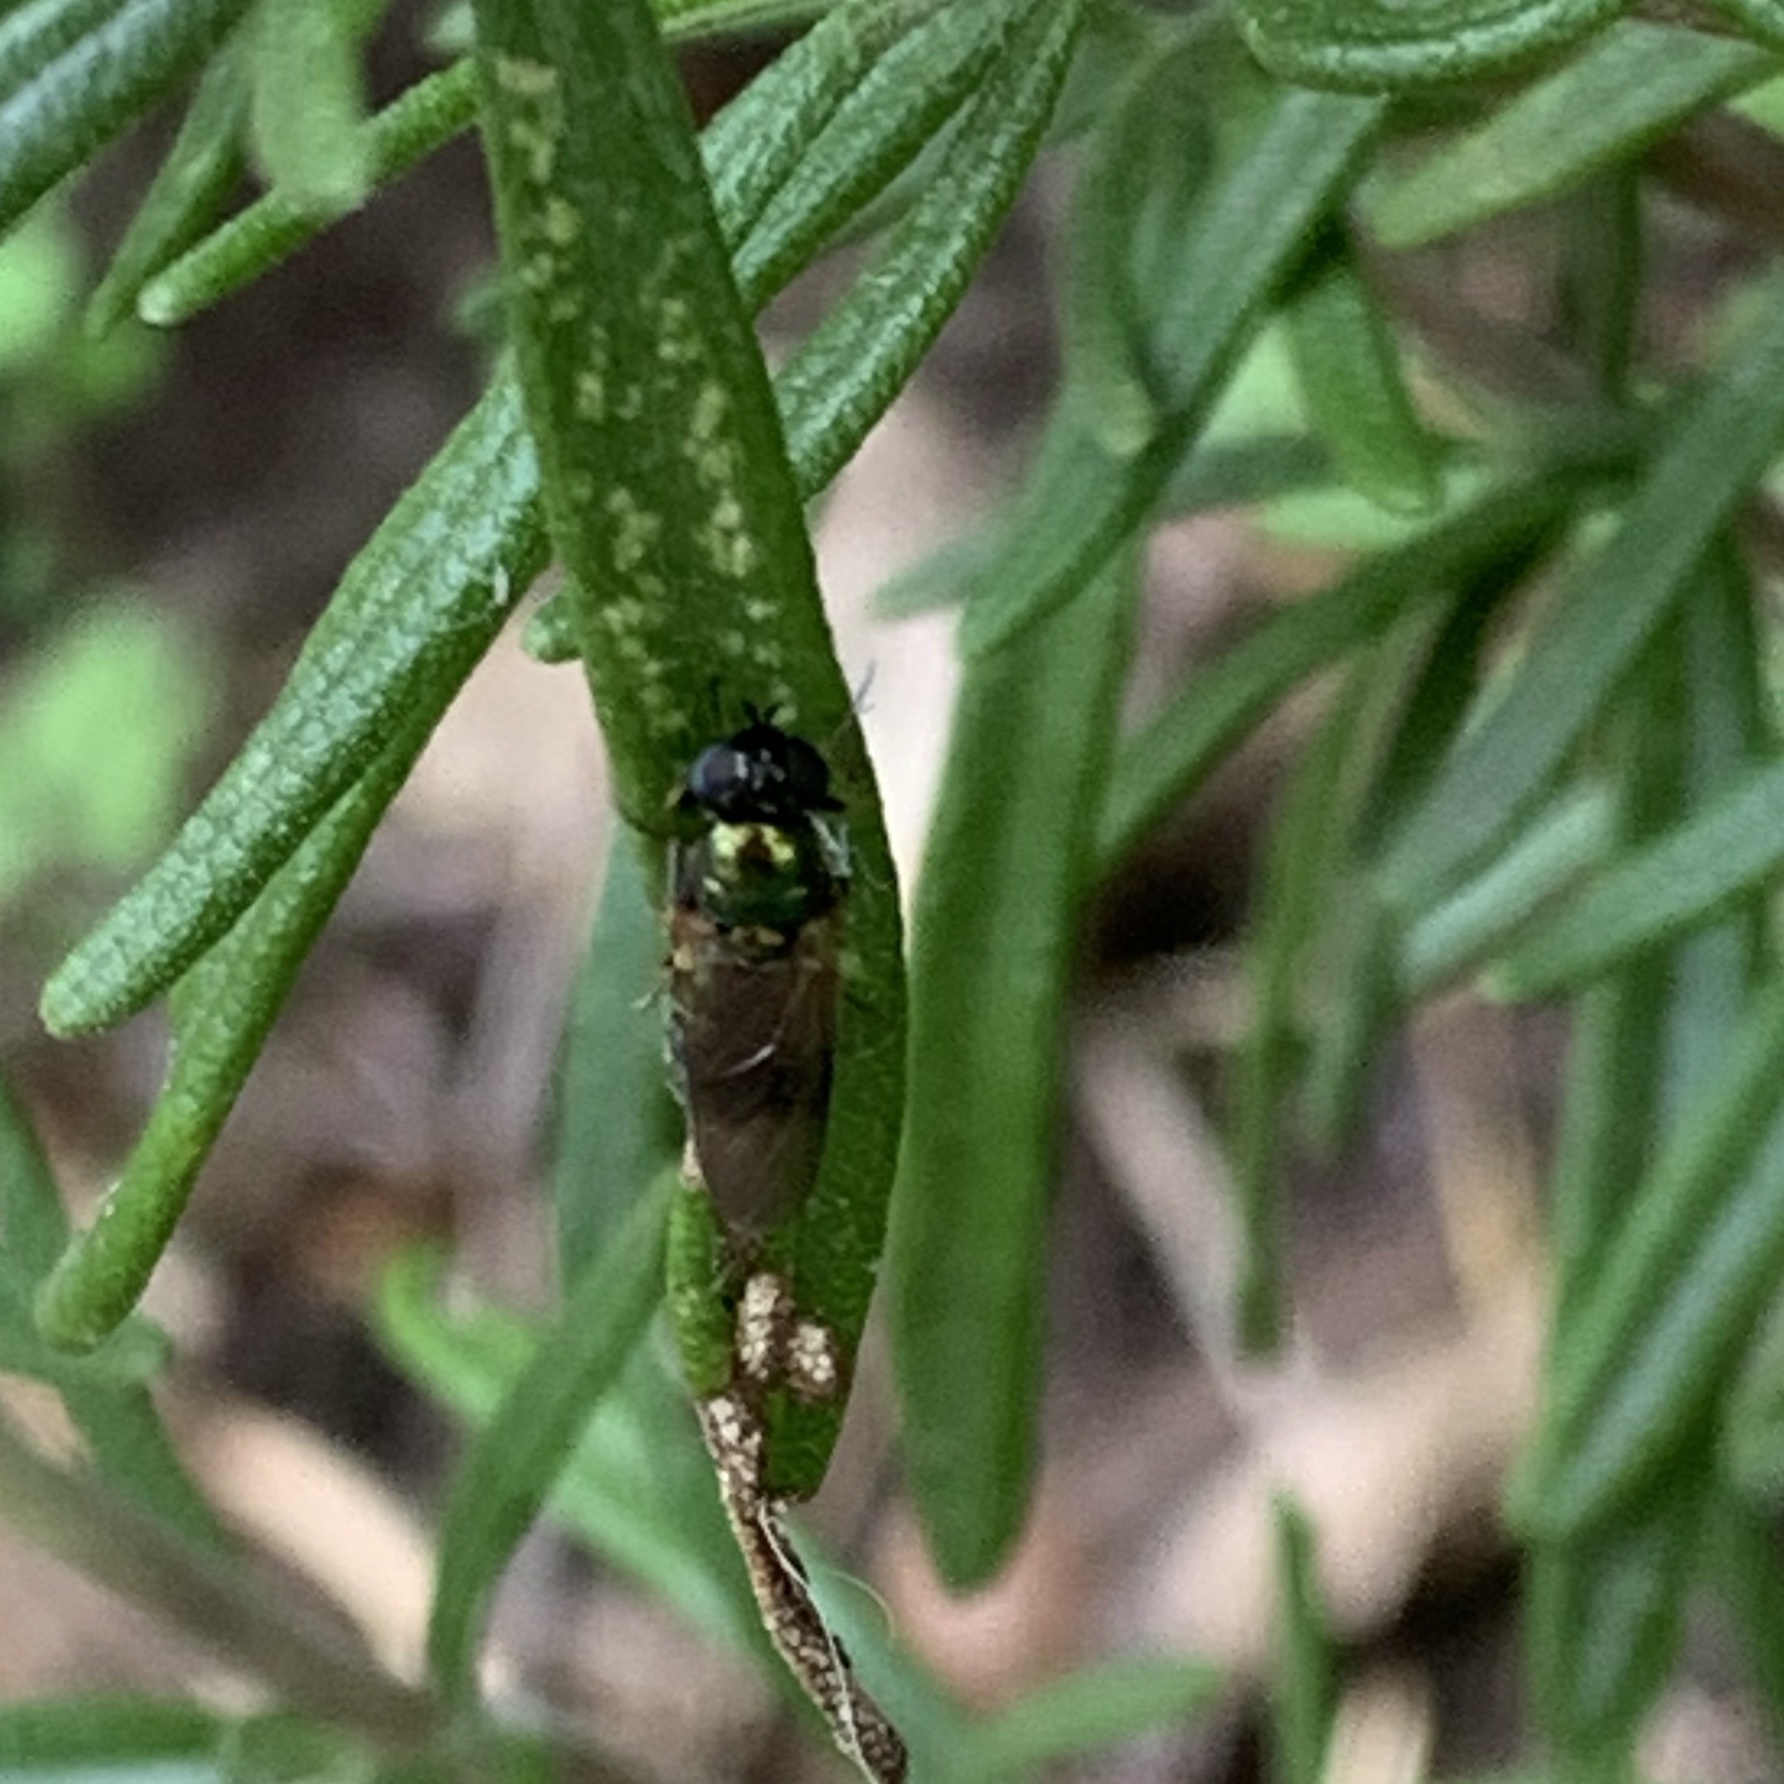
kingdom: Animalia
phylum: Arthropoda
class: Insecta
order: Diptera
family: Stratiomyidae
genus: Chloromyia
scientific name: Chloromyia formosa
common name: Soldier fly
